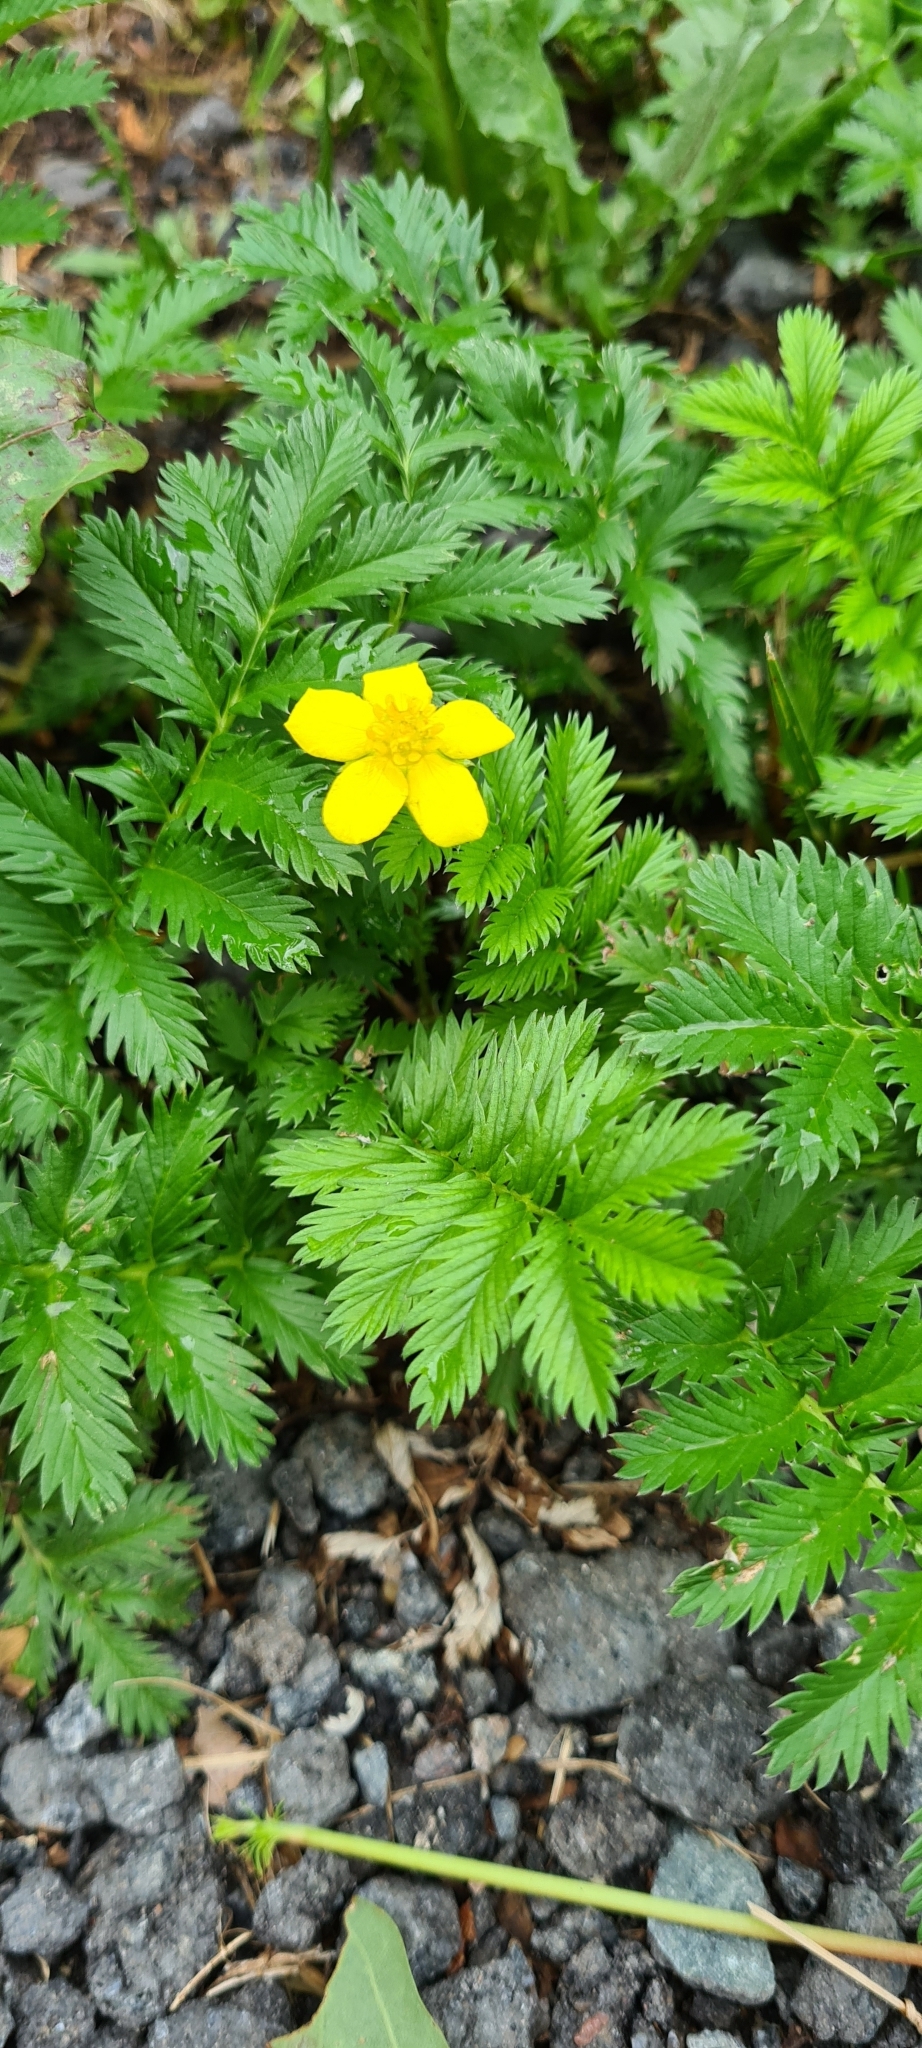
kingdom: Plantae
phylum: Tracheophyta
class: Magnoliopsida
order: Rosales
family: Rosaceae
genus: Argentina
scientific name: Argentina anserina
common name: Common silverweed
